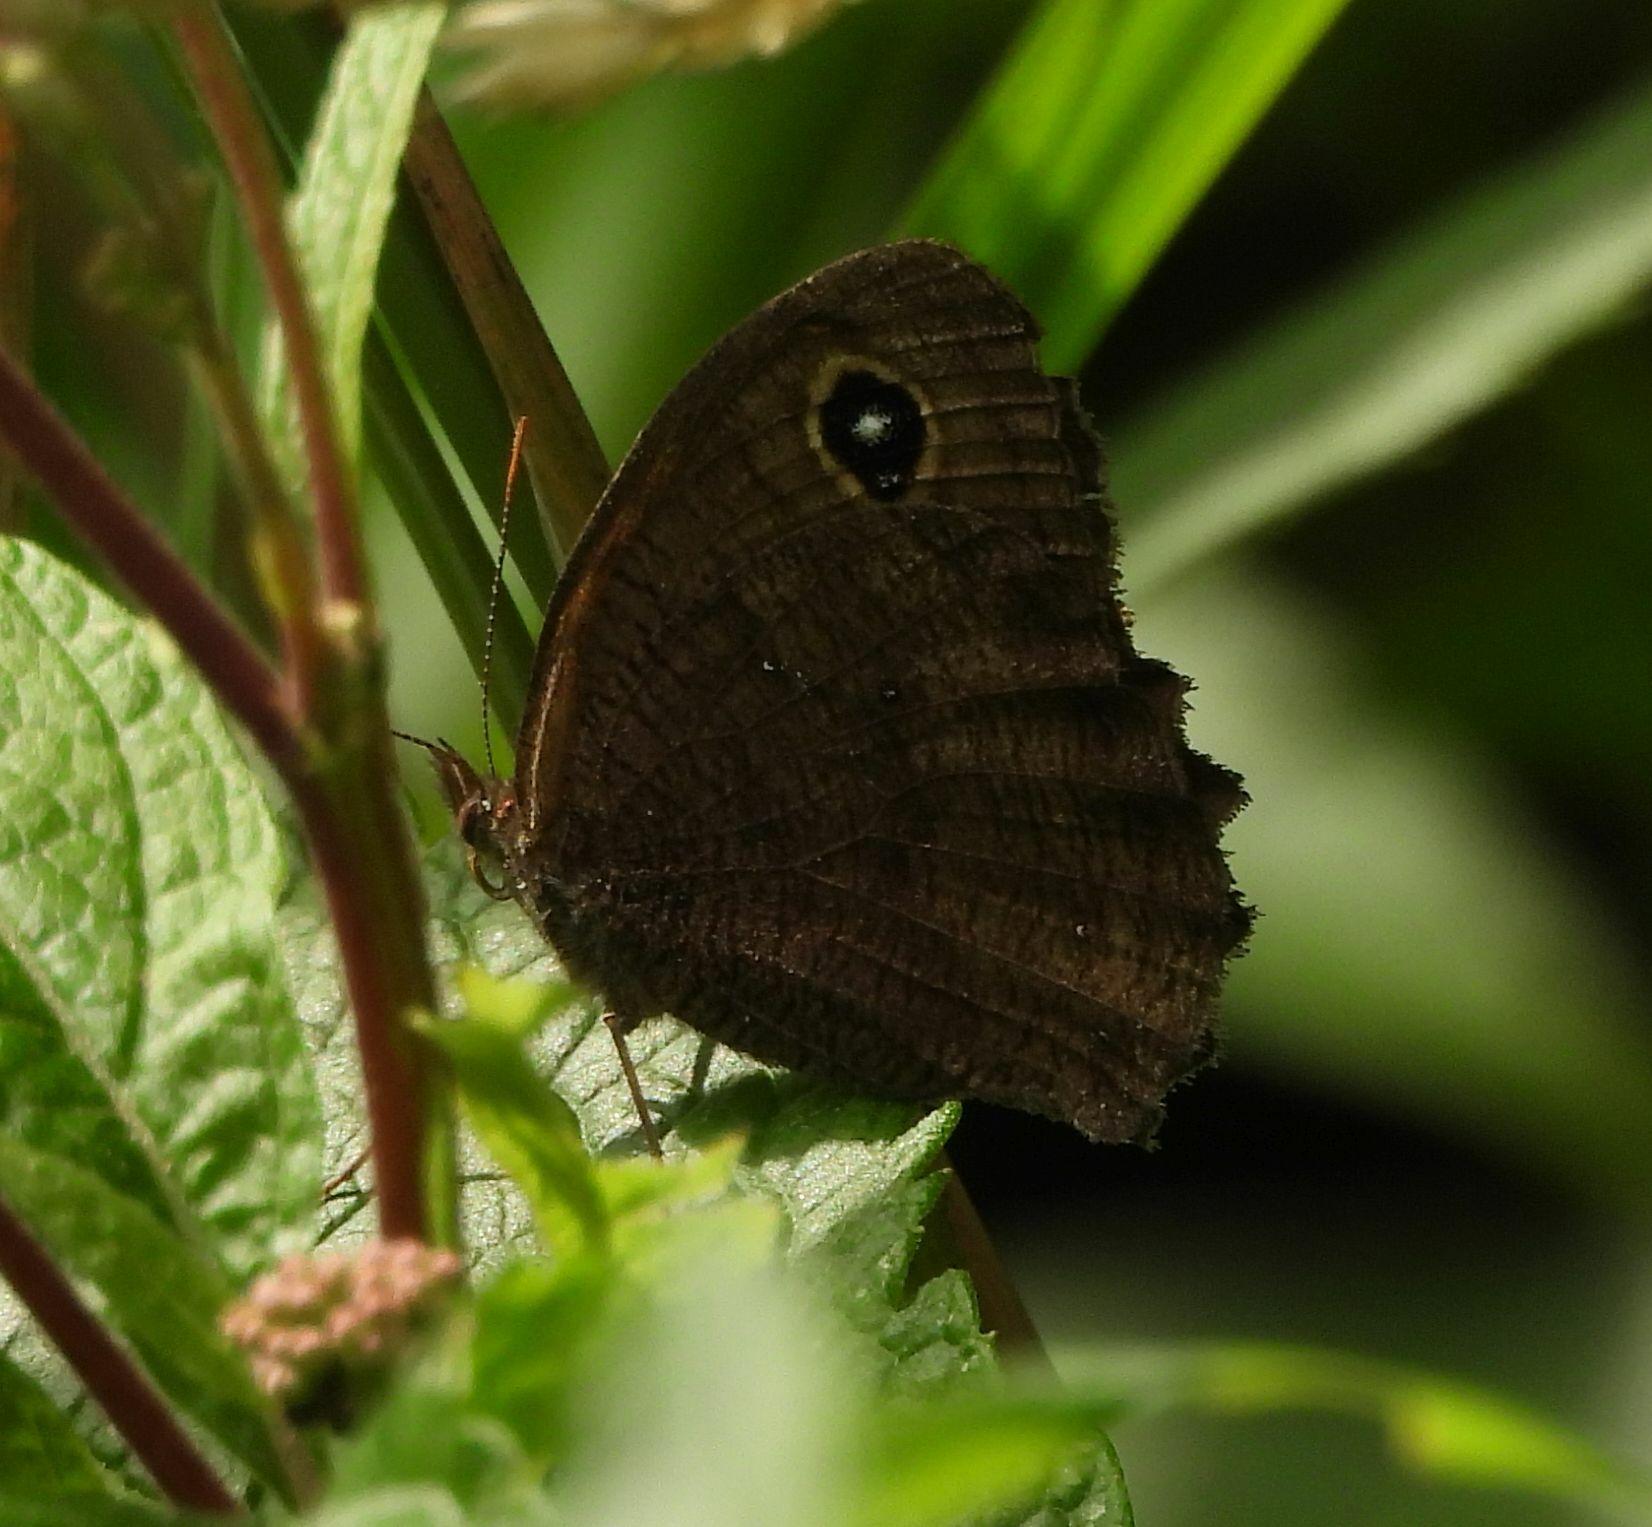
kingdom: Animalia
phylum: Arthropoda
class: Insecta
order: Lepidoptera
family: Nymphalidae
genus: Cercyonis
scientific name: Cercyonis pegala
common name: Common wood-nymph
